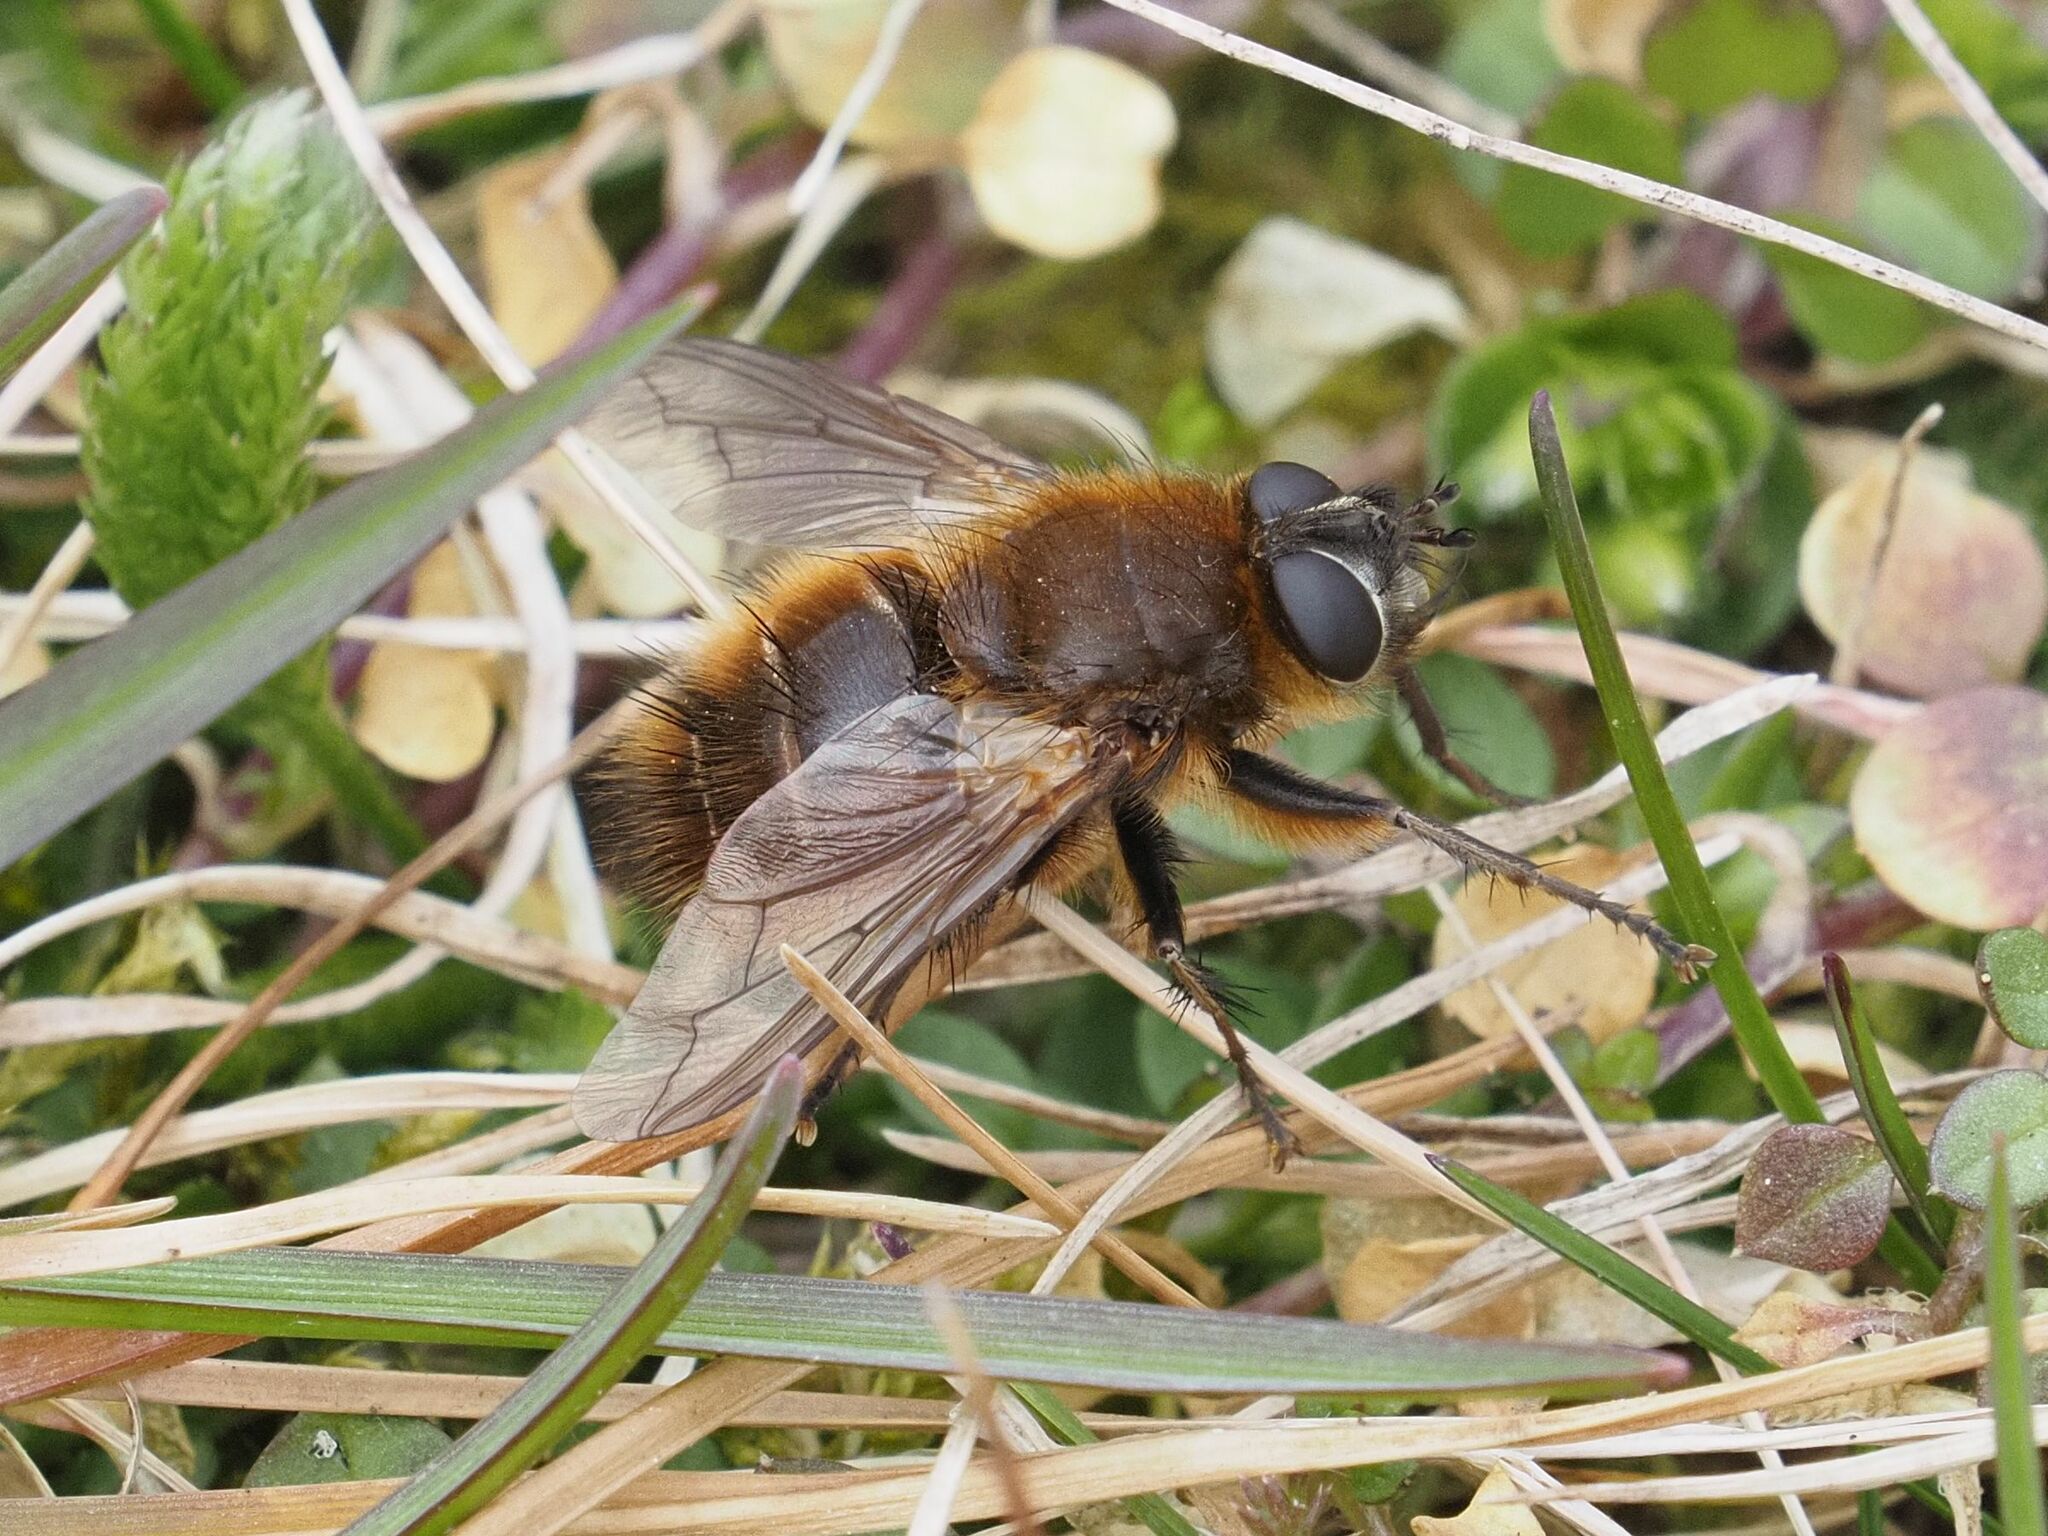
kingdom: Animalia
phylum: Arthropoda
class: Insecta
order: Diptera
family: Tachinidae
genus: Tachina
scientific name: Tachina ursina
